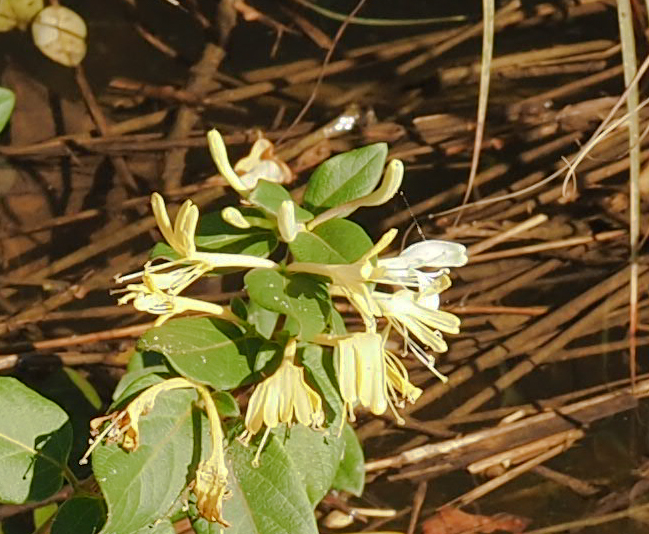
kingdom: Plantae
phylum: Tracheophyta
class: Magnoliopsida
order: Dipsacales
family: Caprifoliaceae
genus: Lonicera
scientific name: Lonicera japonica
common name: Japanese honeysuckle
